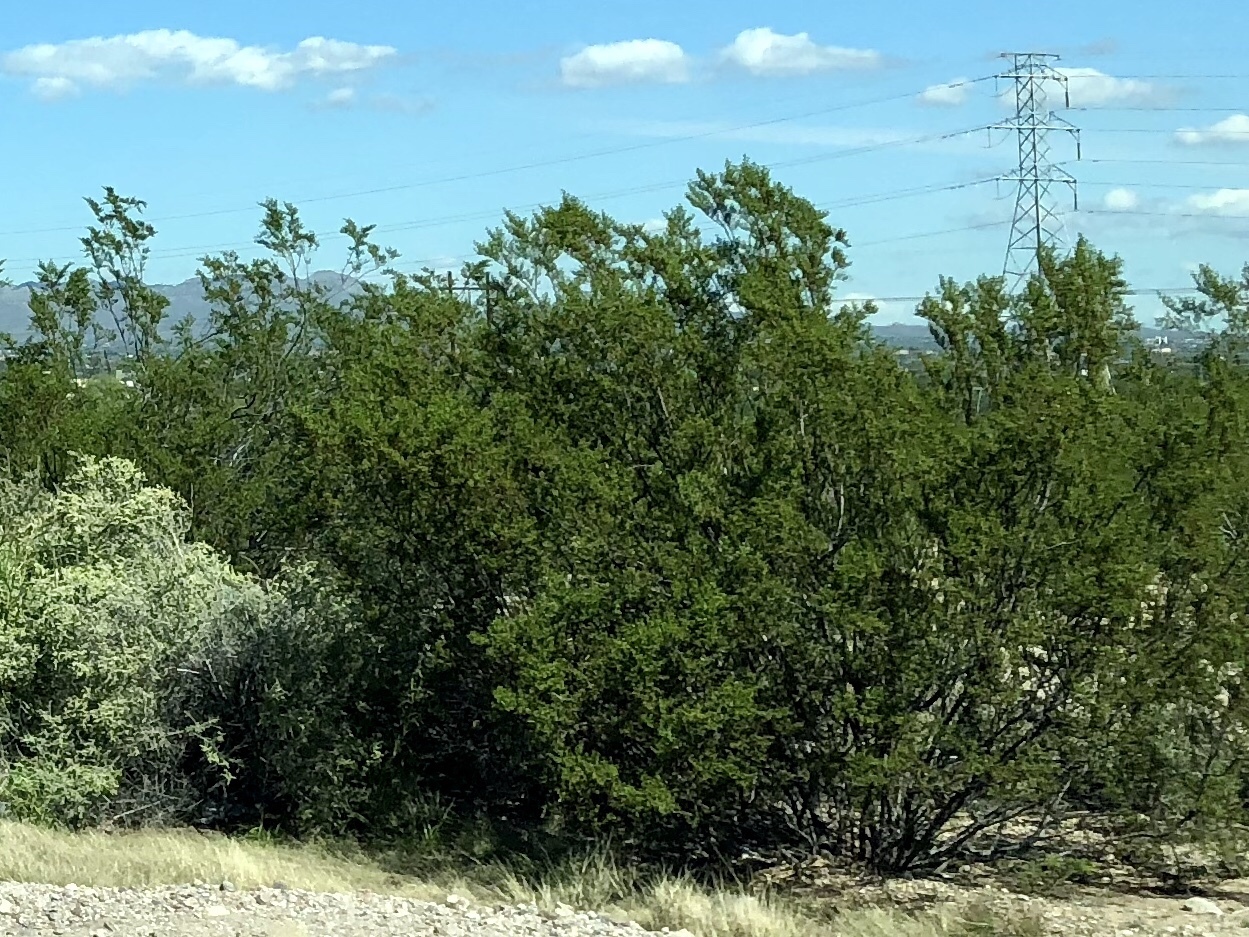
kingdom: Plantae
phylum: Tracheophyta
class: Magnoliopsida
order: Zygophyllales
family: Zygophyllaceae
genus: Larrea
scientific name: Larrea tridentata
